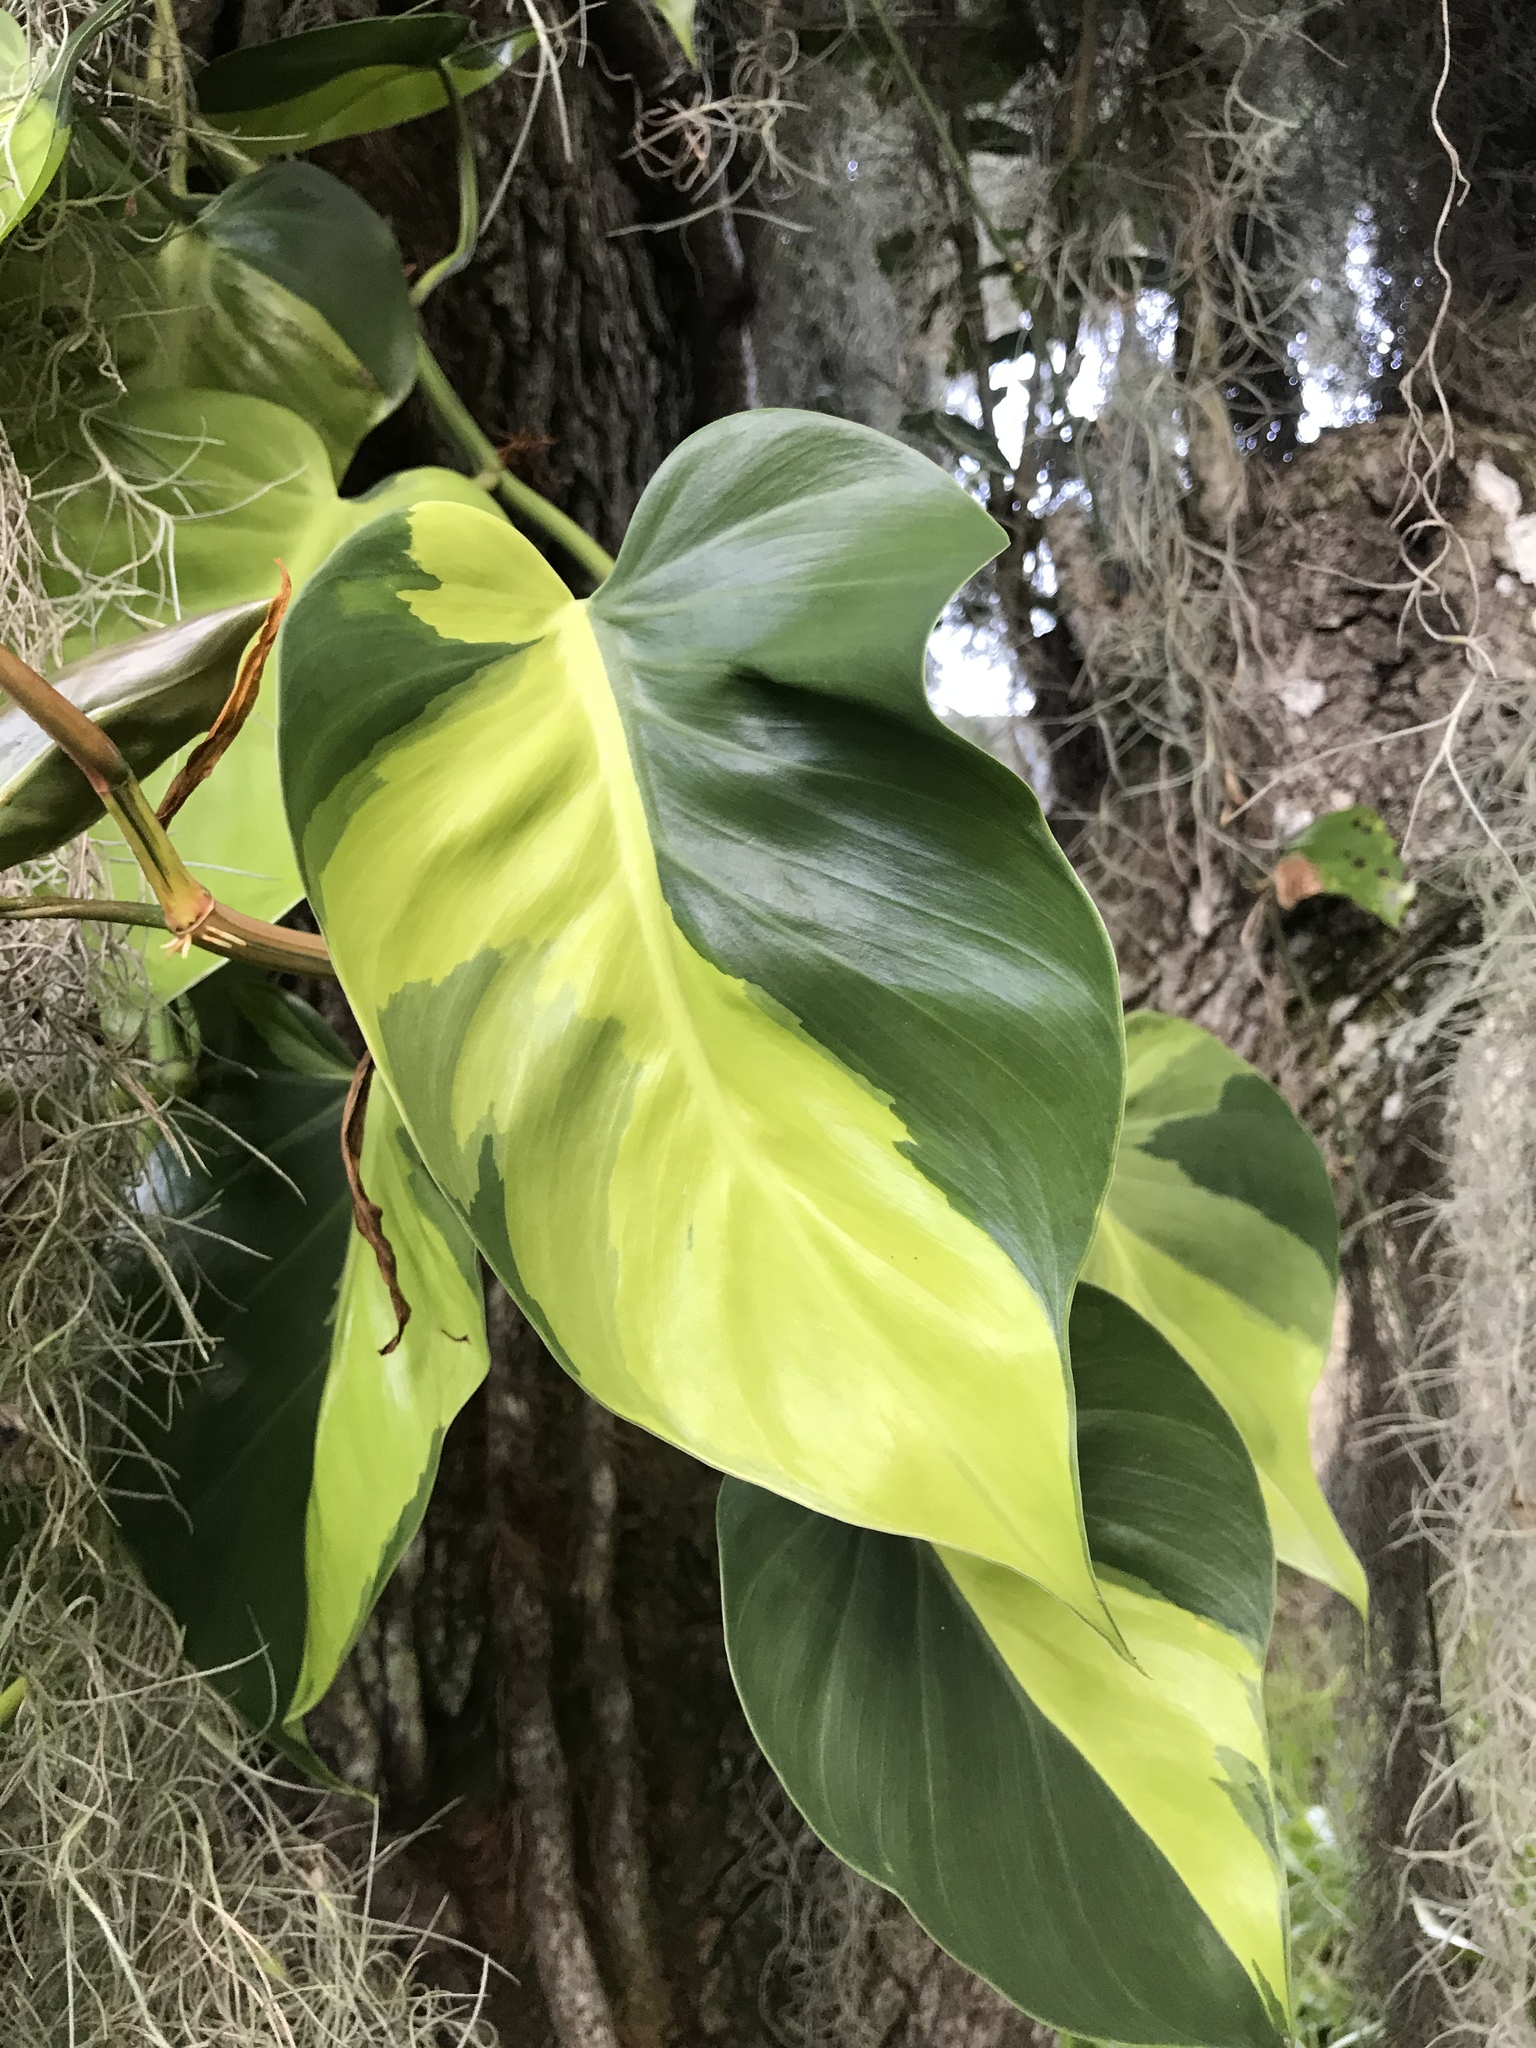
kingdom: Plantae
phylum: Tracheophyta
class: Liliopsida
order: Alismatales
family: Araceae
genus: Philodendron
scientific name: Philodendron hederaceum
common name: Vilevine
